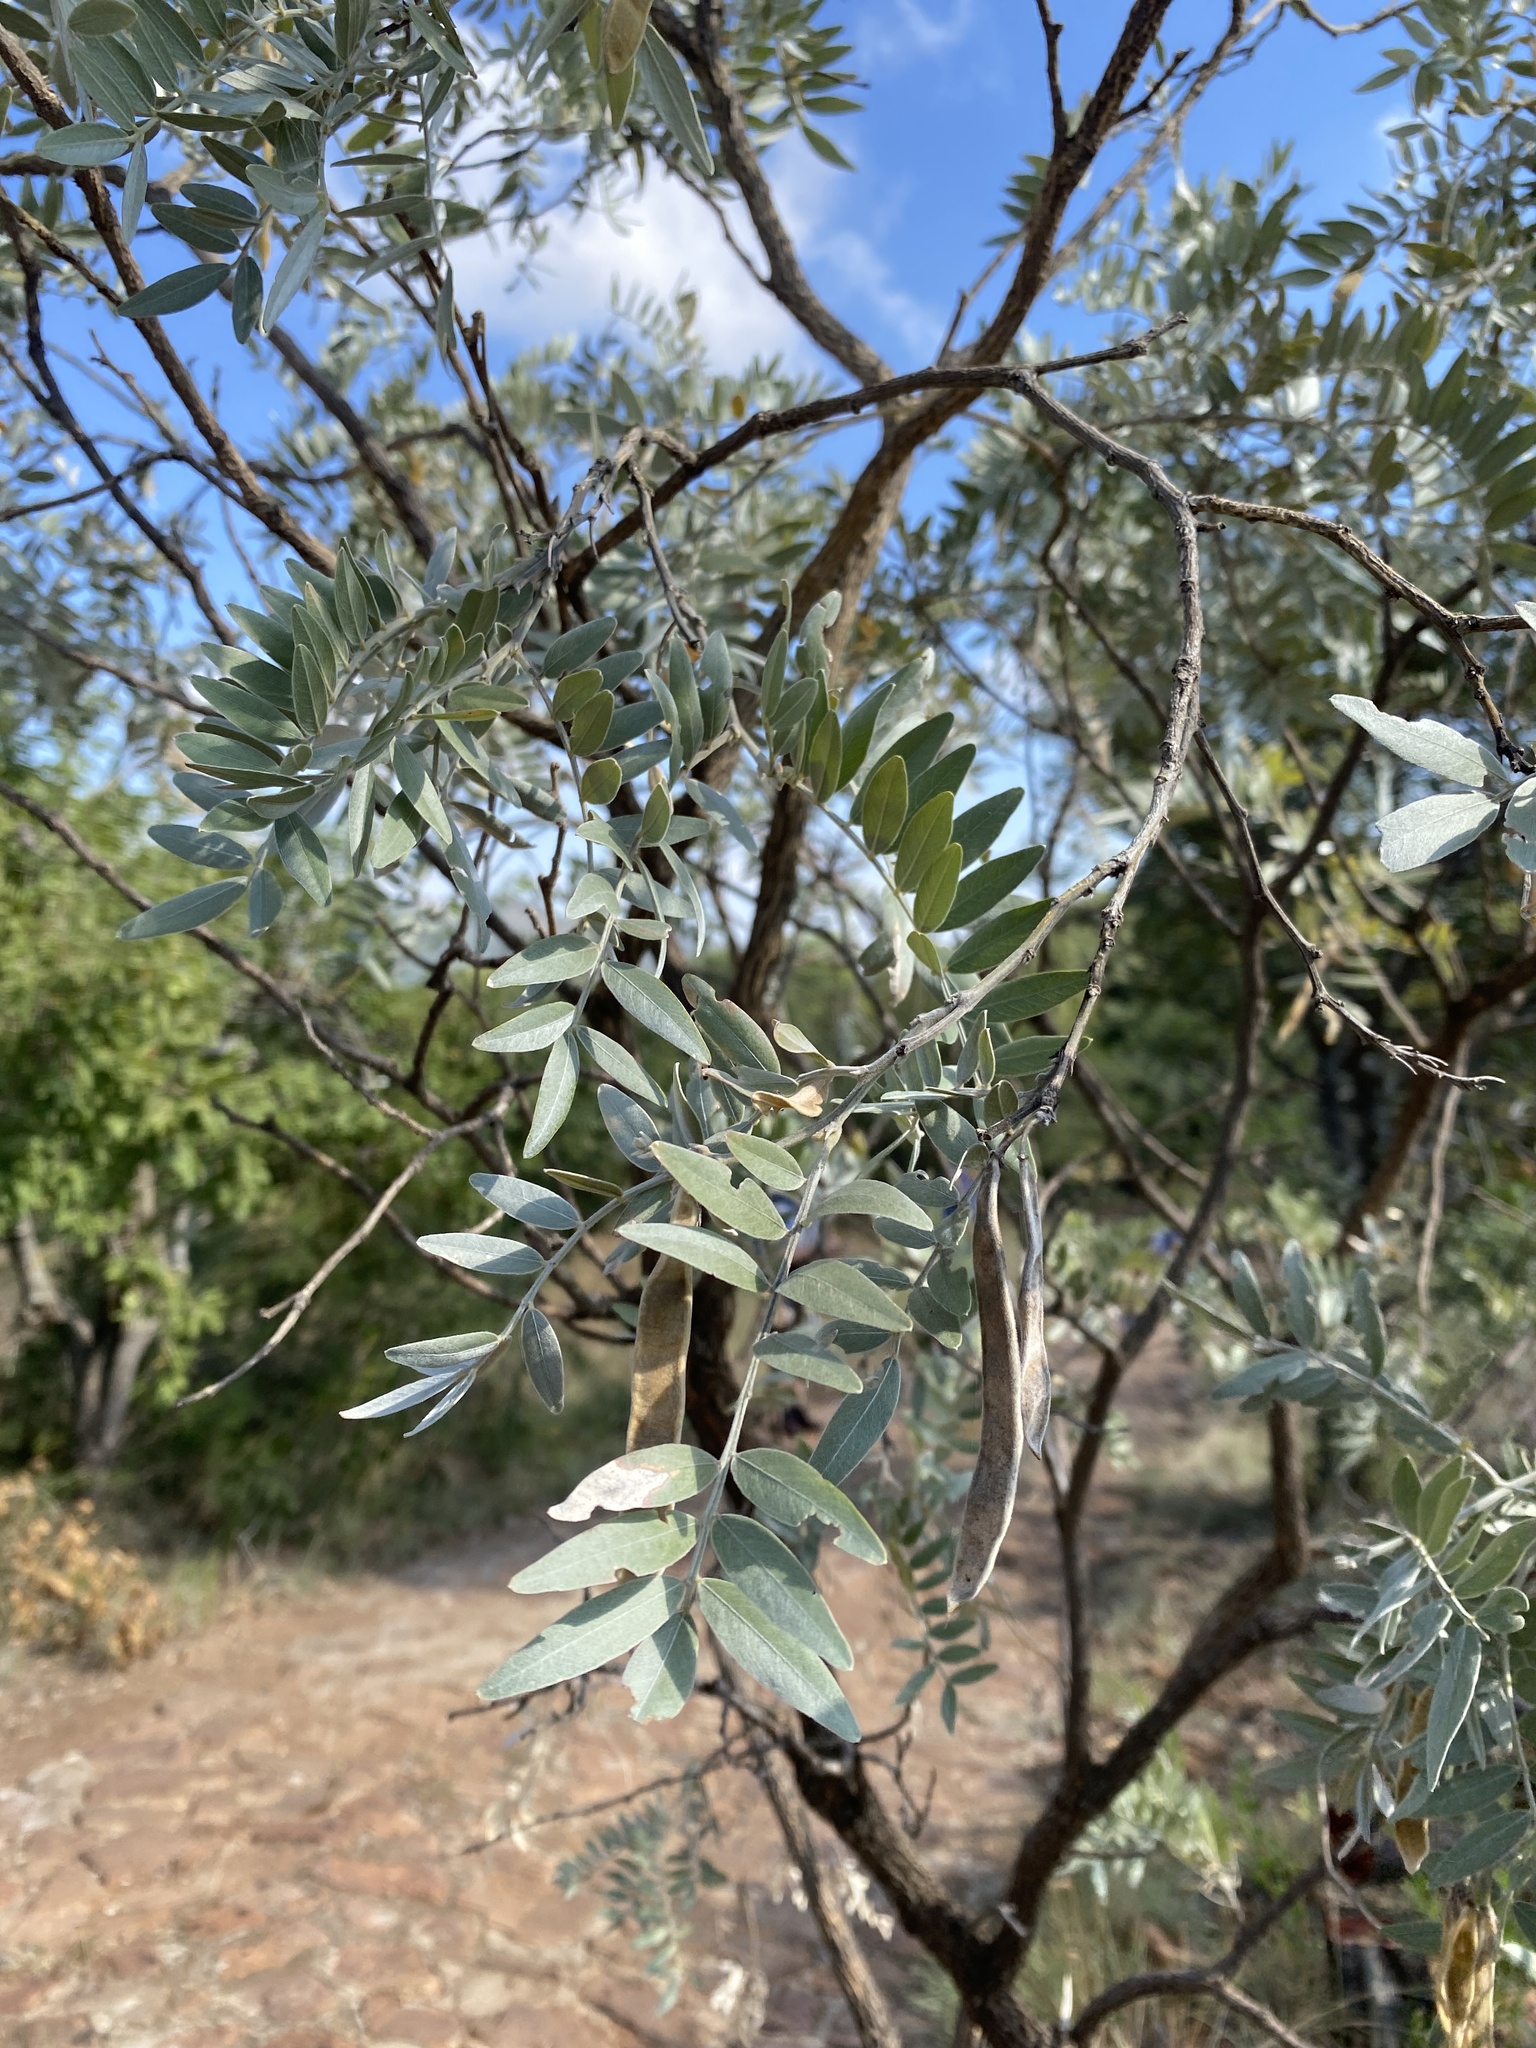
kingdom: Plantae
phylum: Tracheophyta
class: Magnoliopsida
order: Fabales
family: Fabaceae
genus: Mundulea
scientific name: Mundulea sericea
